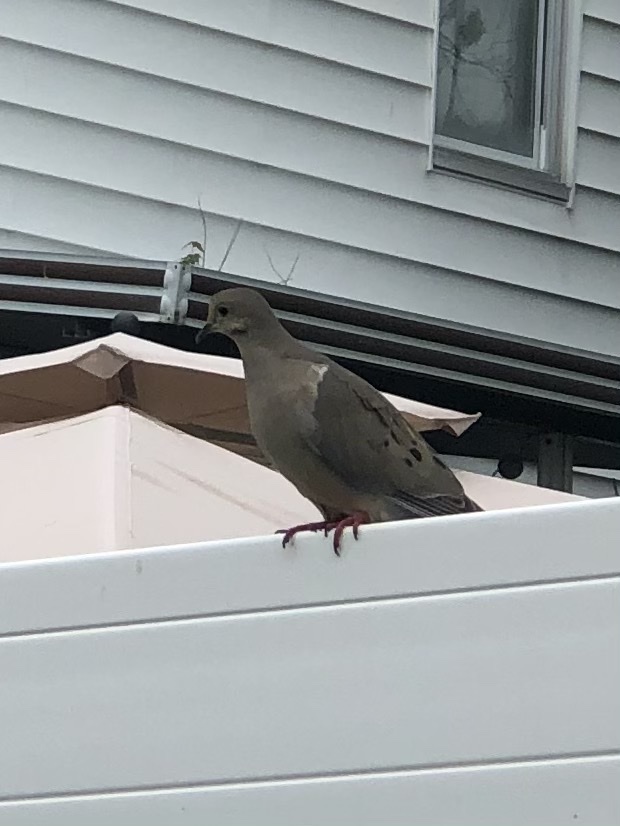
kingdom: Animalia
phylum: Chordata
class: Aves
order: Columbiformes
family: Columbidae
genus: Zenaida
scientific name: Zenaida macroura
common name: Mourning dove
